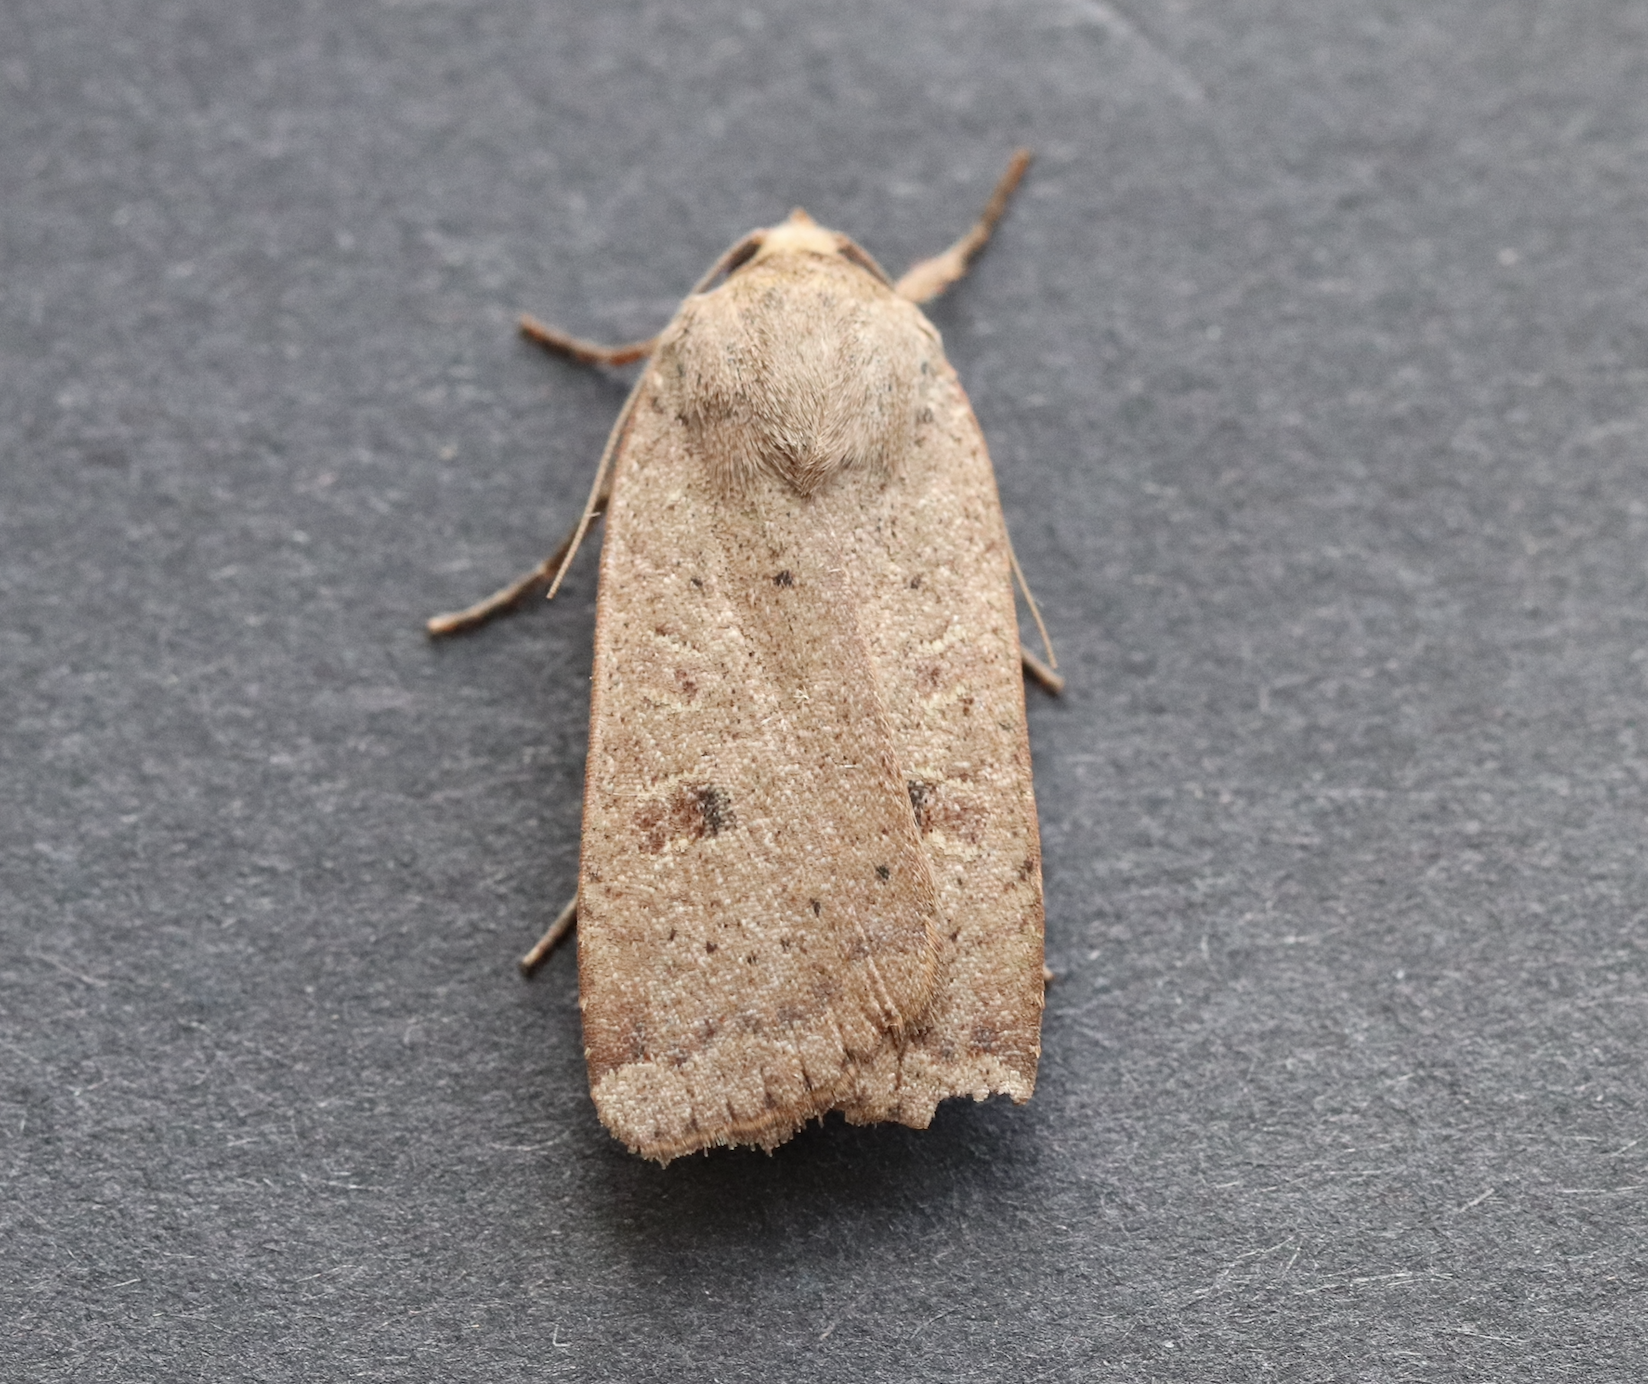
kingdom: Animalia
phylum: Arthropoda
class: Insecta
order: Lepidoptera
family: Noctuidae
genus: Noctua
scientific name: Noctua comes
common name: Lesser yellow underwing
